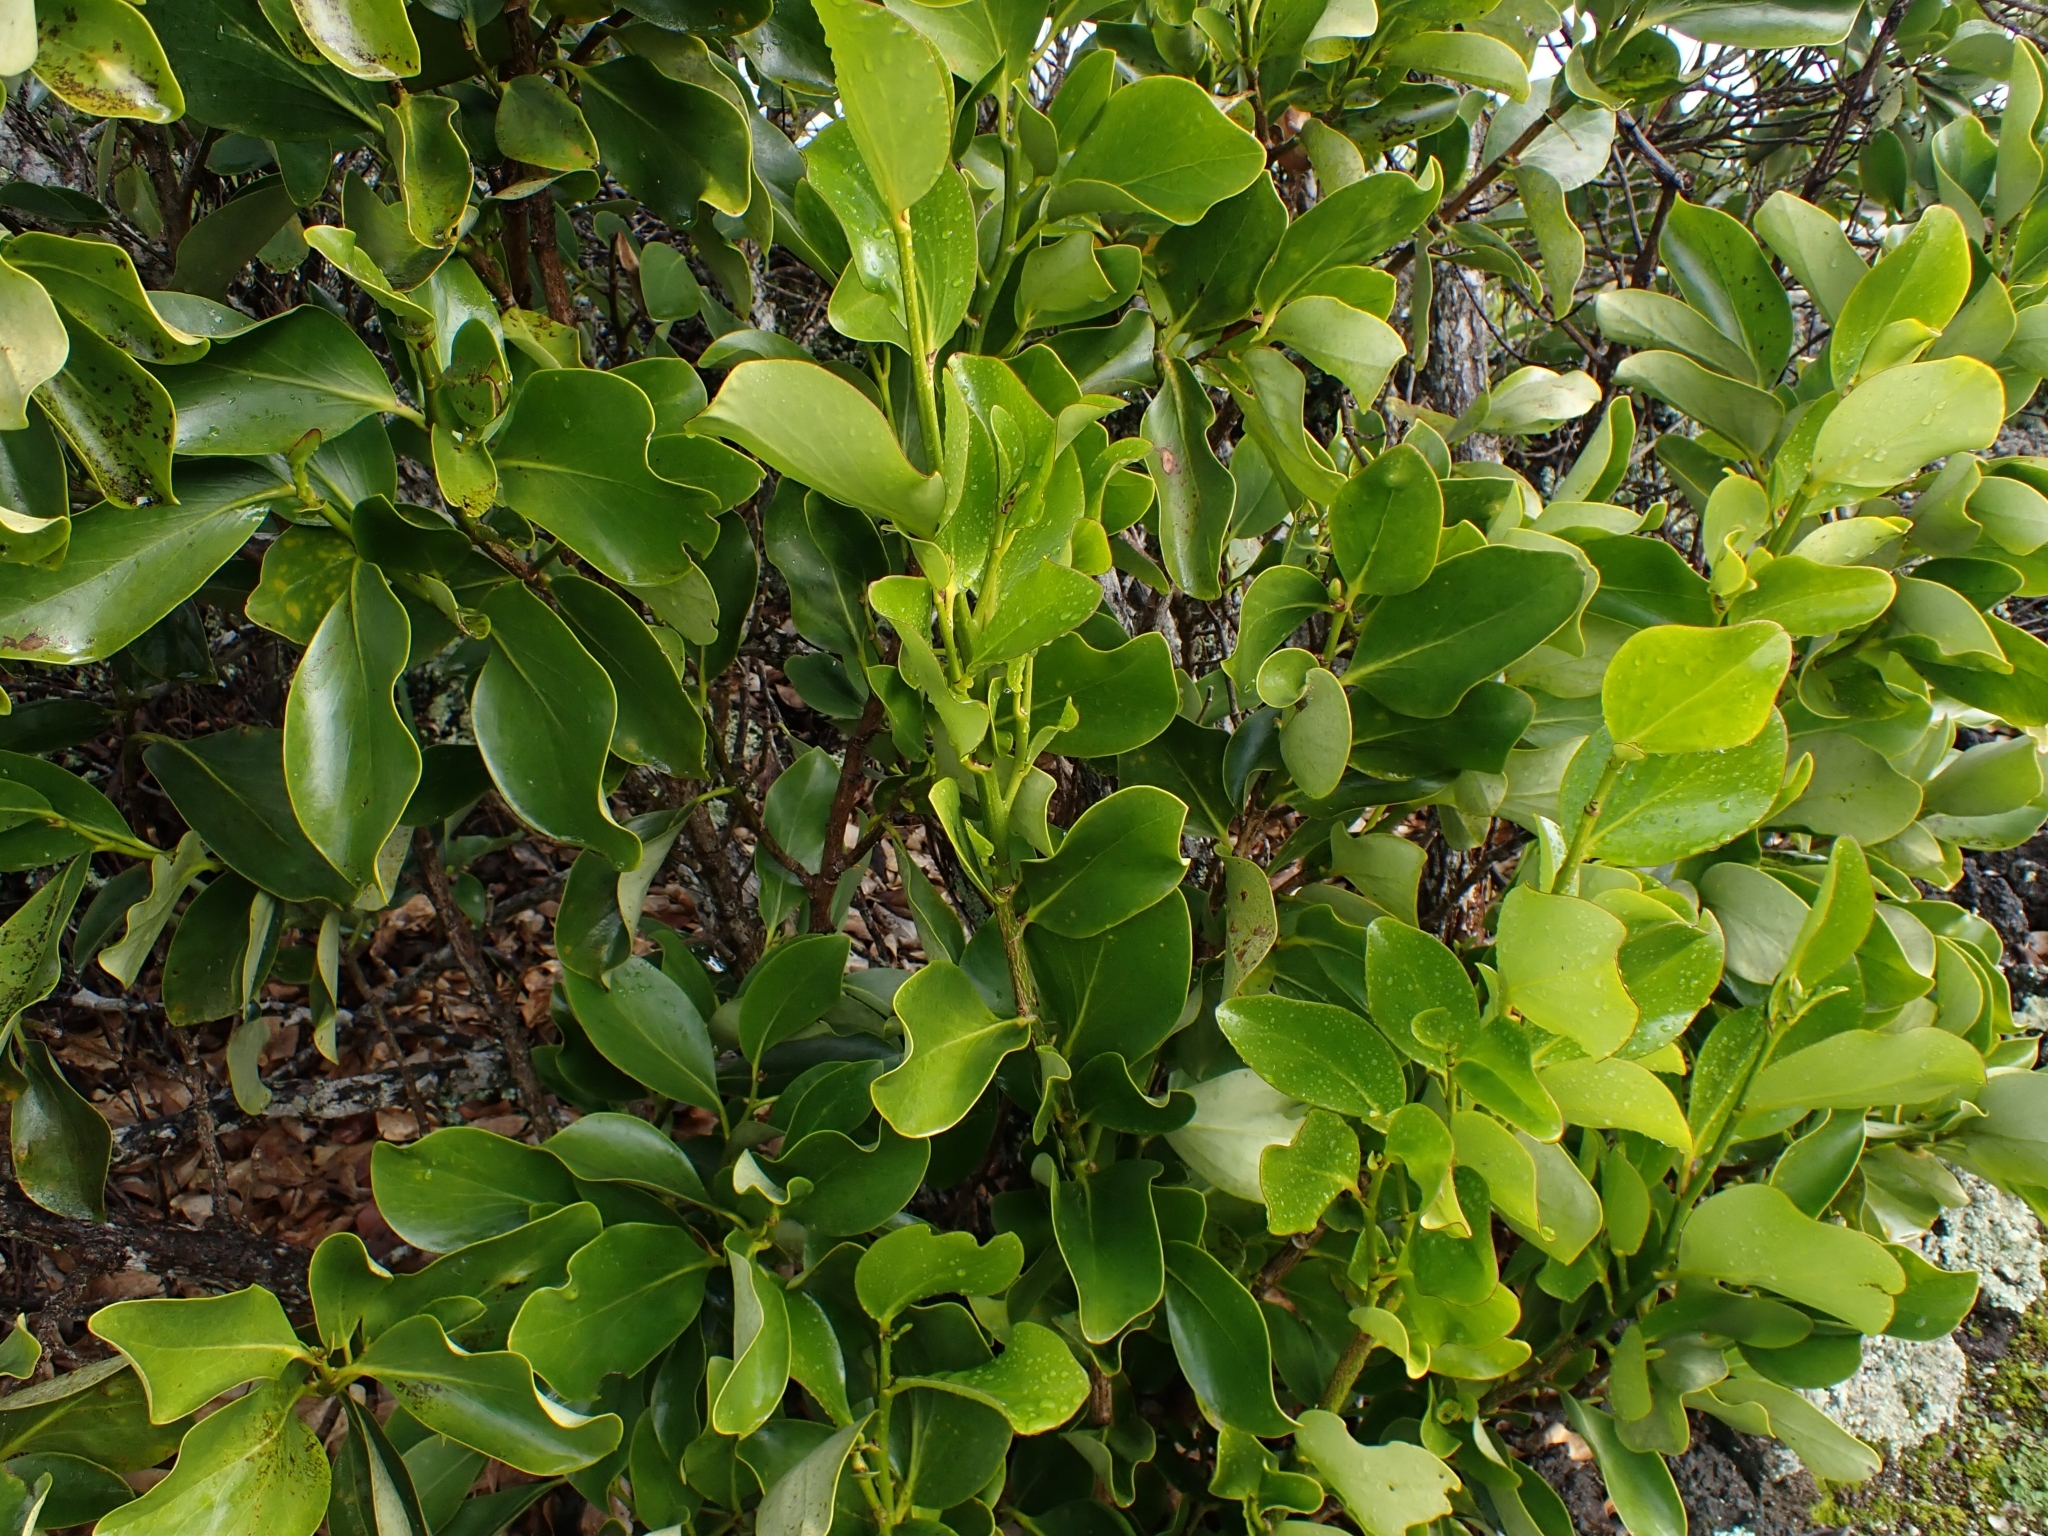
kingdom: Plantae
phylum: Tracheophyta
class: Magnoliopsida
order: Apiales
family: Griseliniaceae
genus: Griselinia
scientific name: Griselinia lucida
